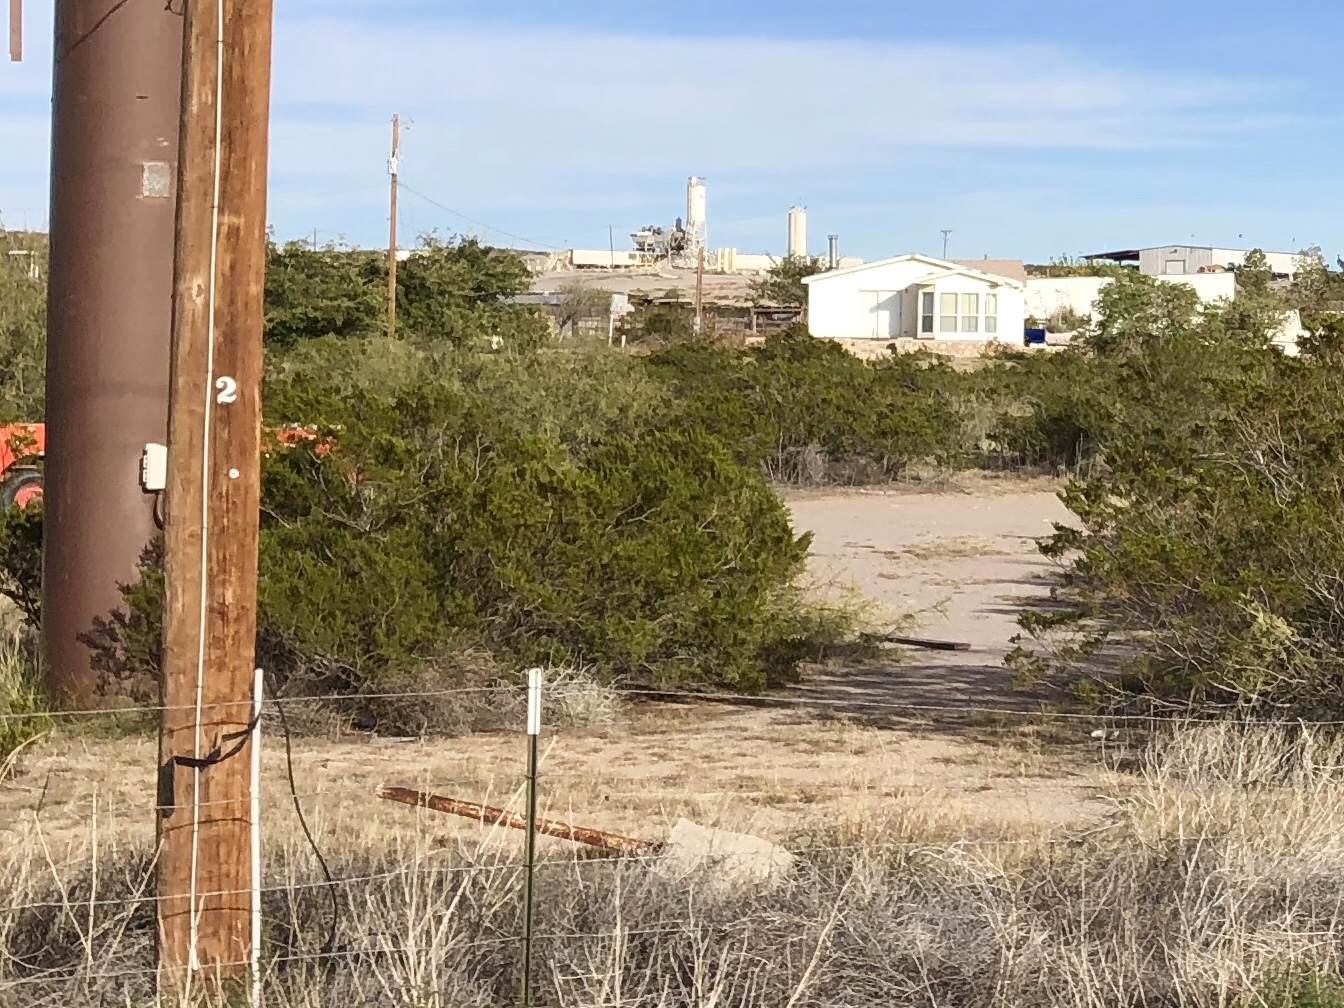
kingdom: Plantae
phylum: Tracheophyta
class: Magnoliopsida
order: Zygophyllales
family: Zygophyllaceae
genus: Larrea
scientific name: Larrea tridentata
